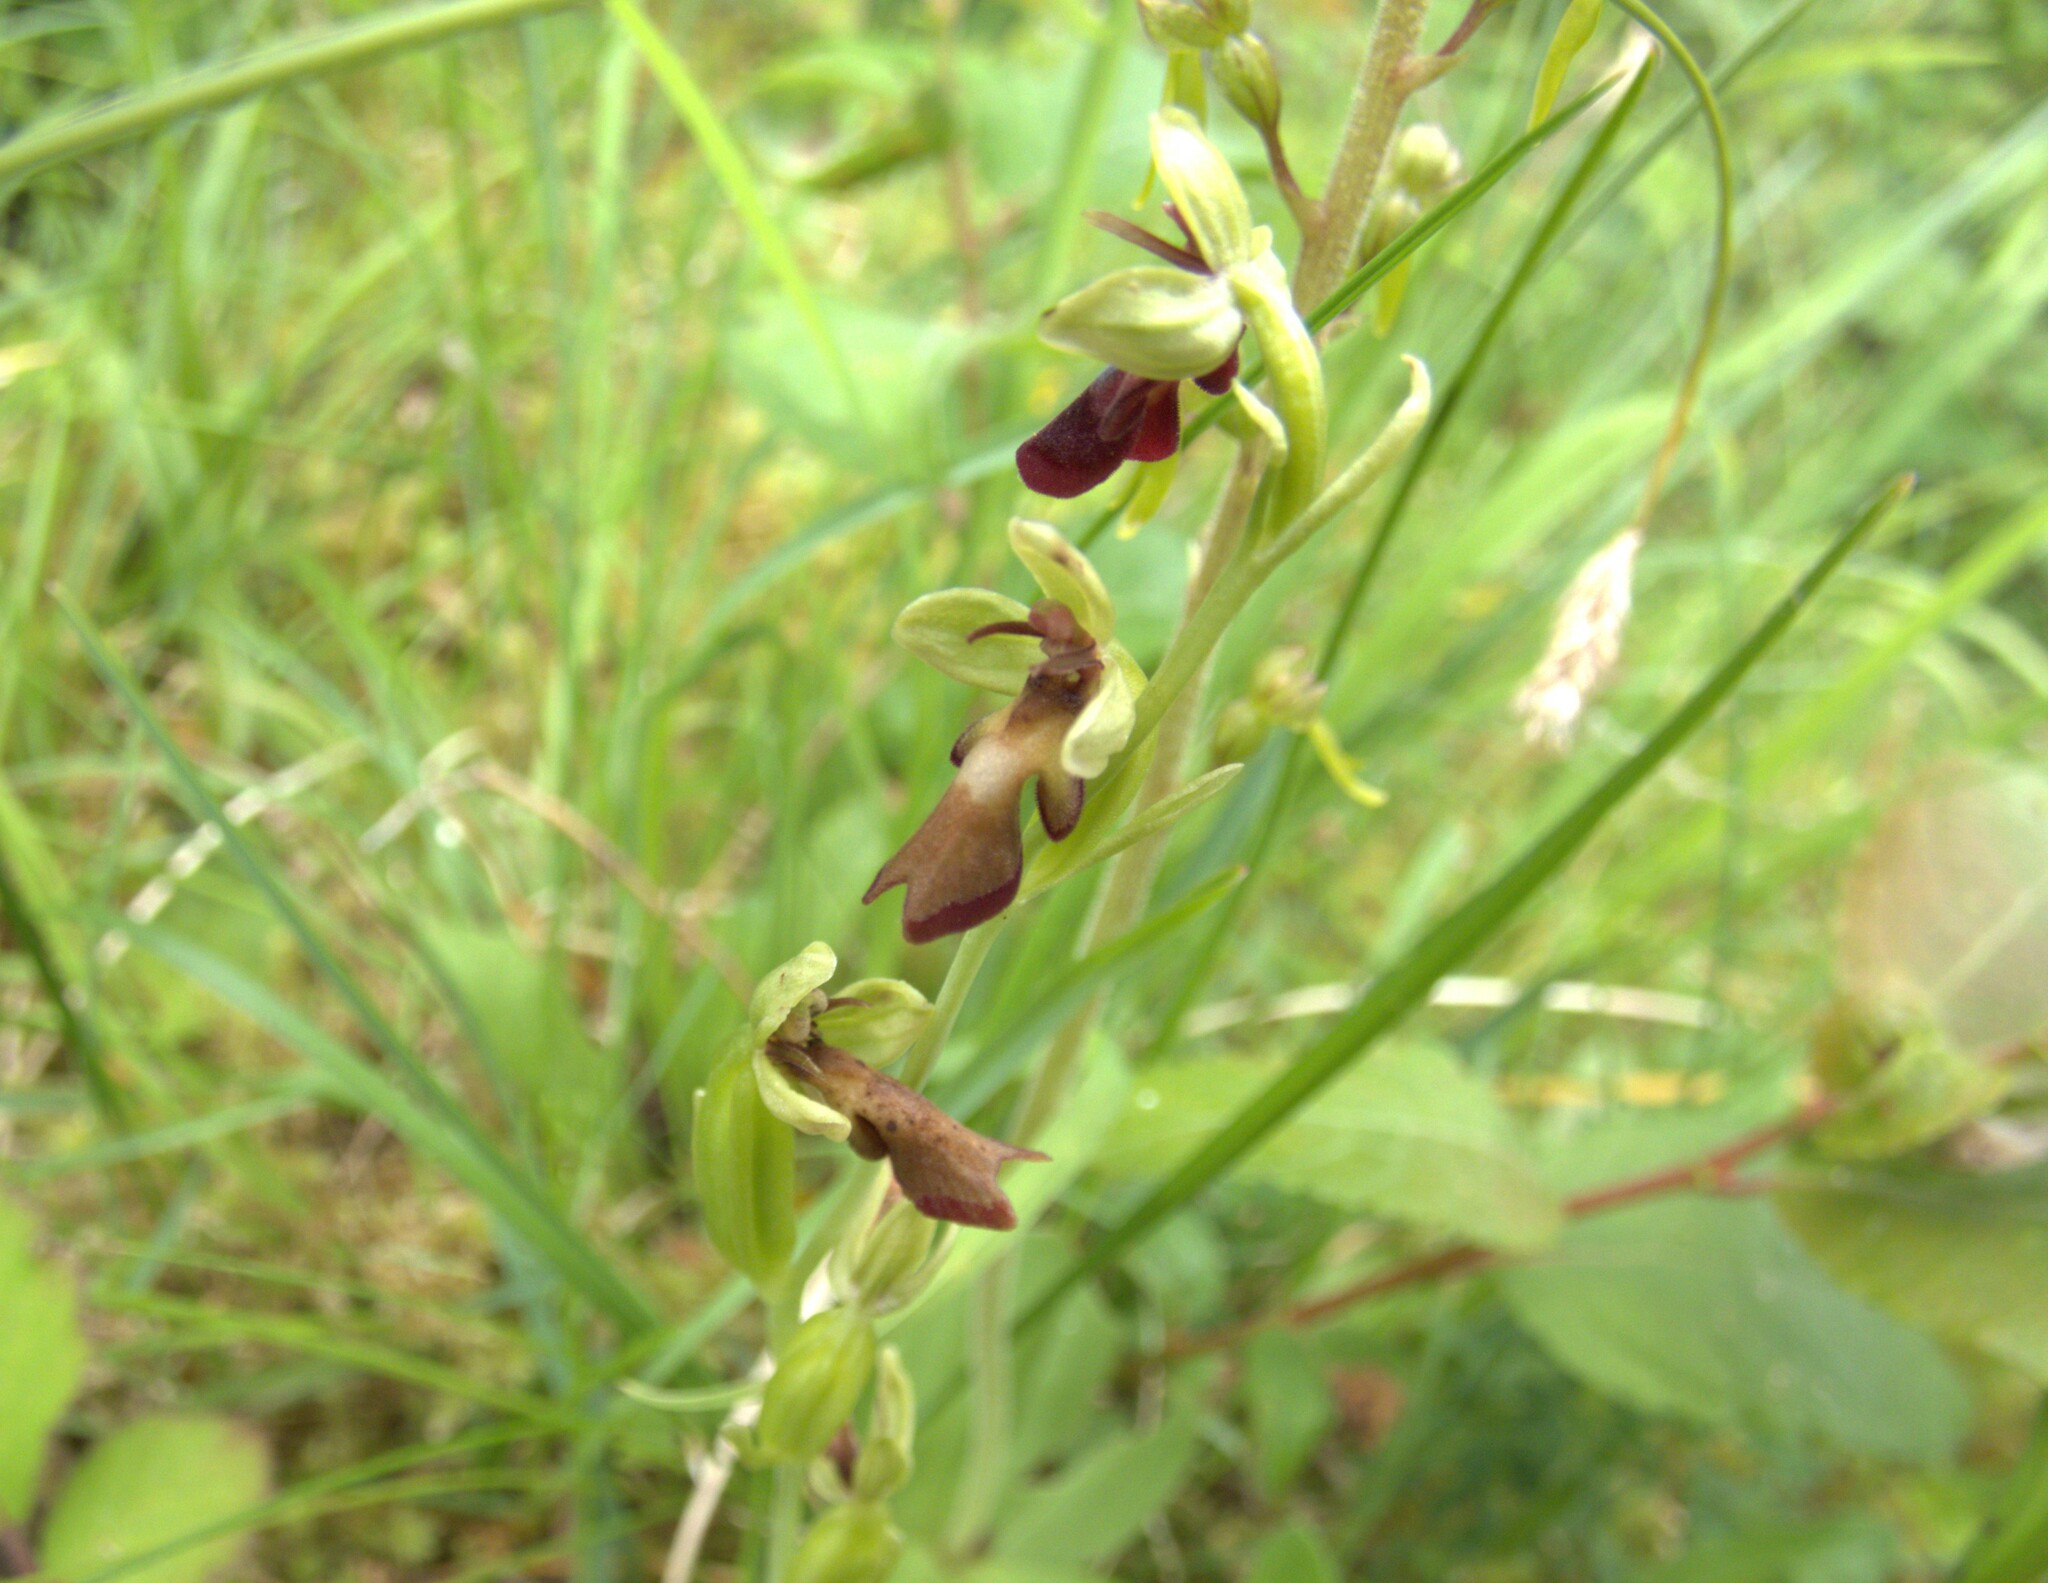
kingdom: Plantae
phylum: Tracheophyta
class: Liliopsida
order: Asparagales
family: Orchidaceae
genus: Ophrys
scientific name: Ophrys insectifera
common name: Fly orchid
